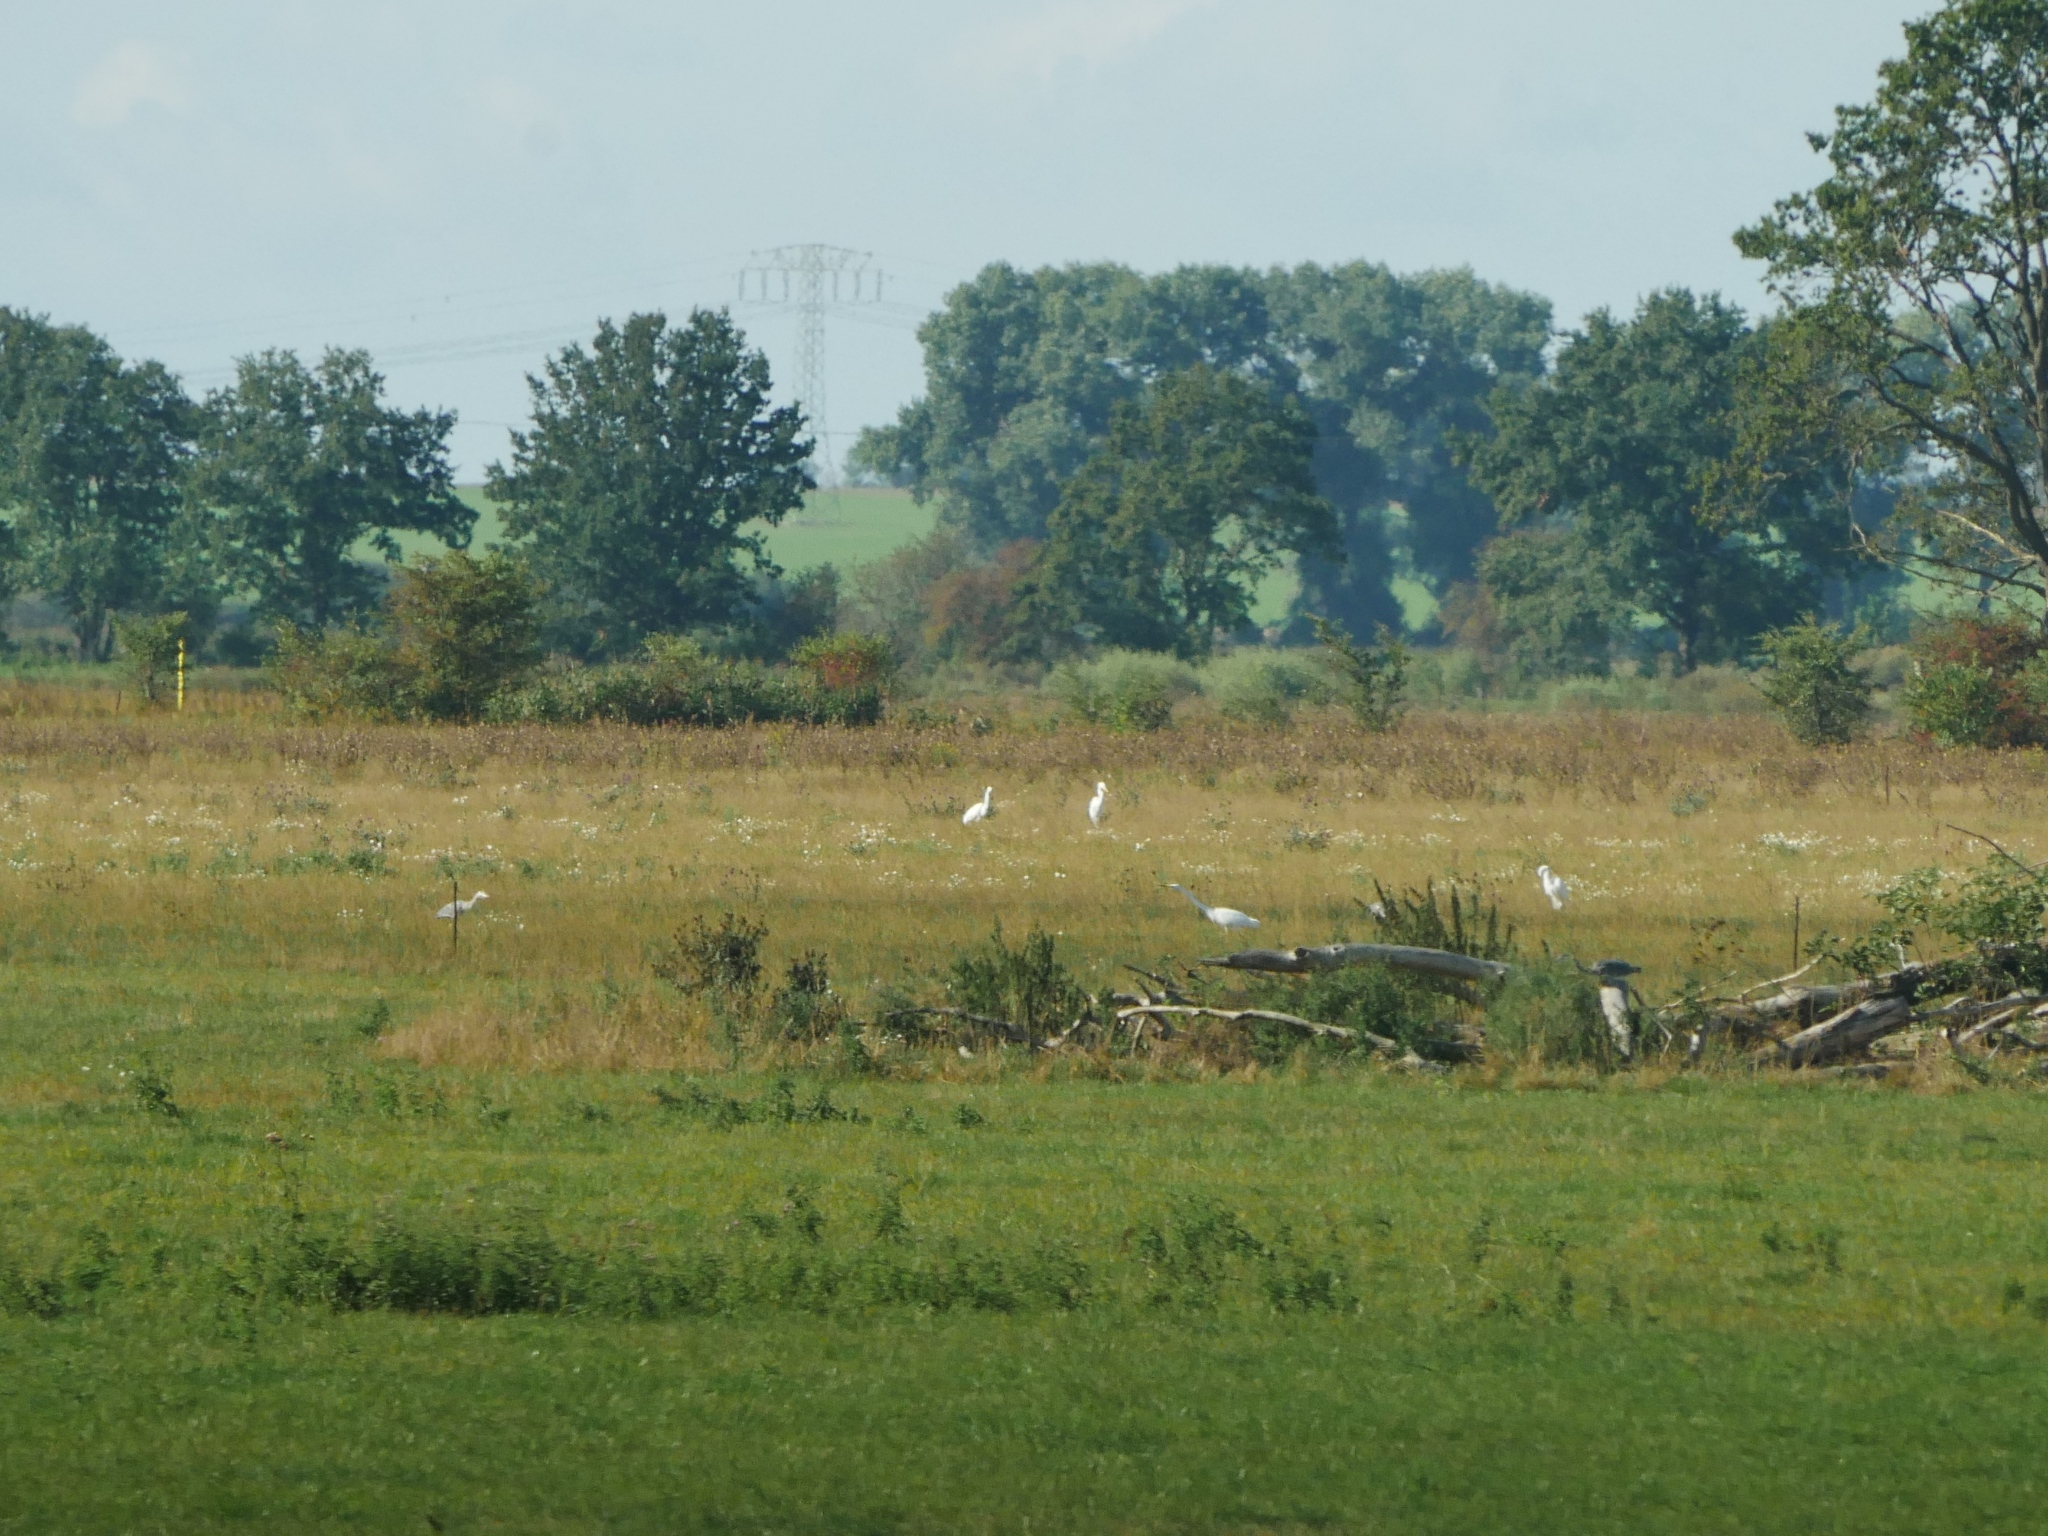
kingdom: Animalia
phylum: Chordata
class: Aves
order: Pelecaniformes
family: Ardeidae
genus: Ardea
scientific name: Ardea alba
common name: Great egret
